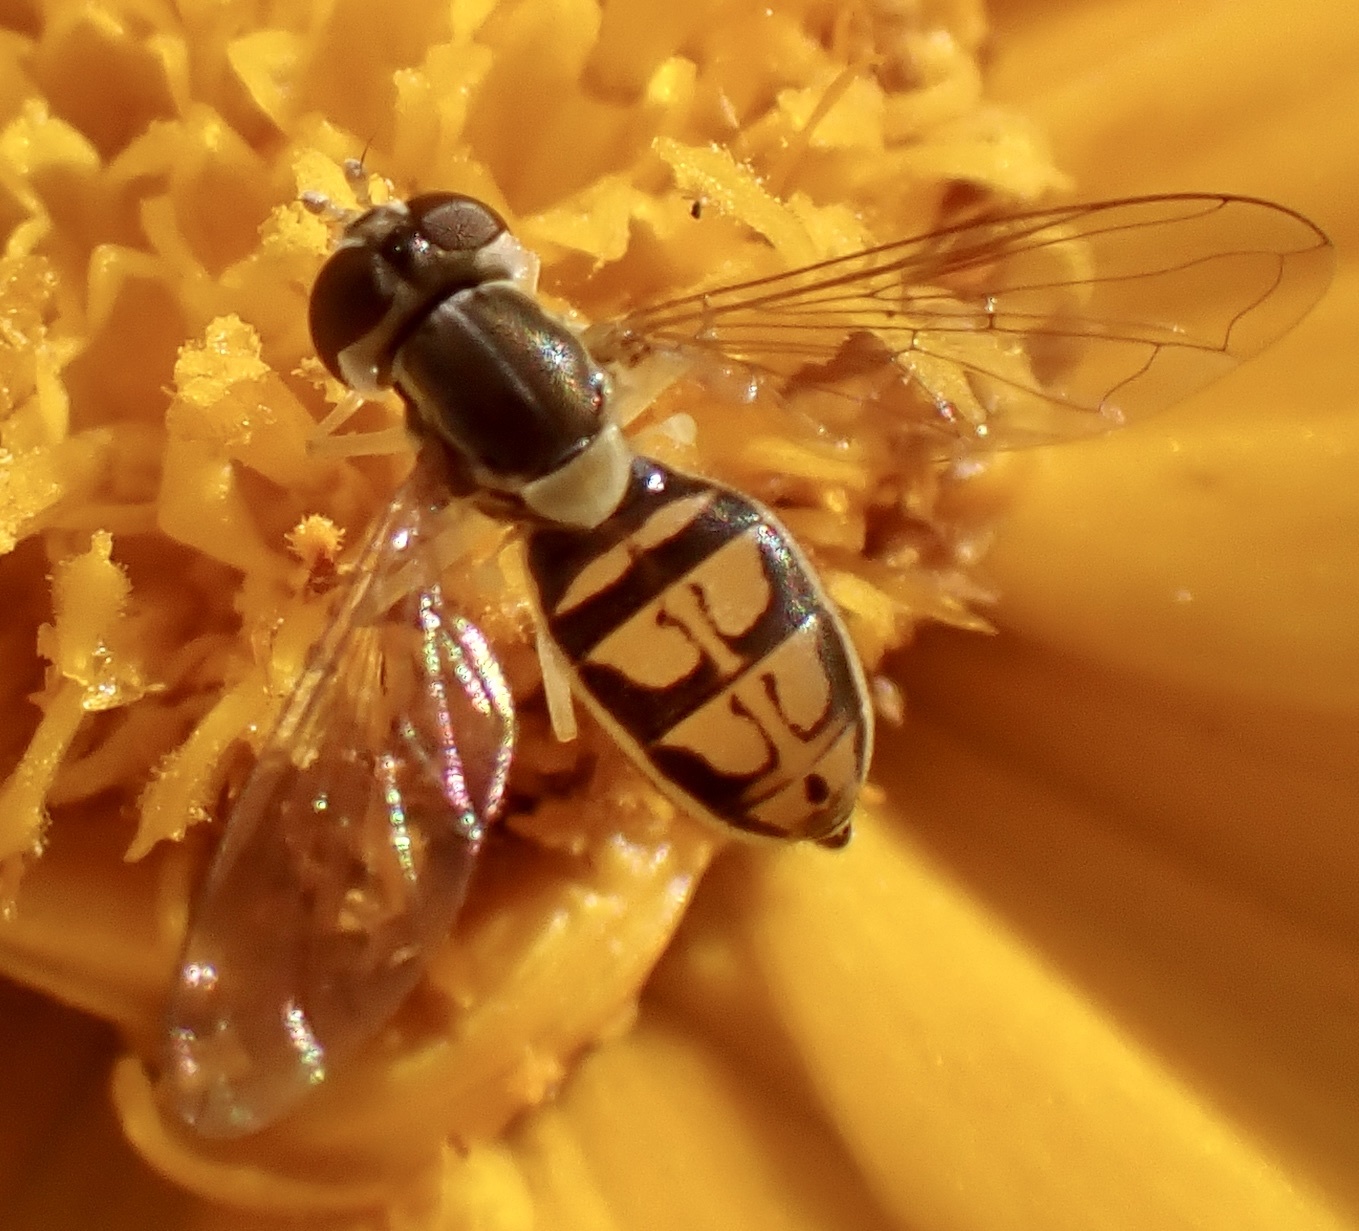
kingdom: Animalia
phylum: Arthropoda
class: Insecta
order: Diptera
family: Syrphidae
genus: Toxomerus
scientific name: Toxomerus marginatus
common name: Syrphid fly
